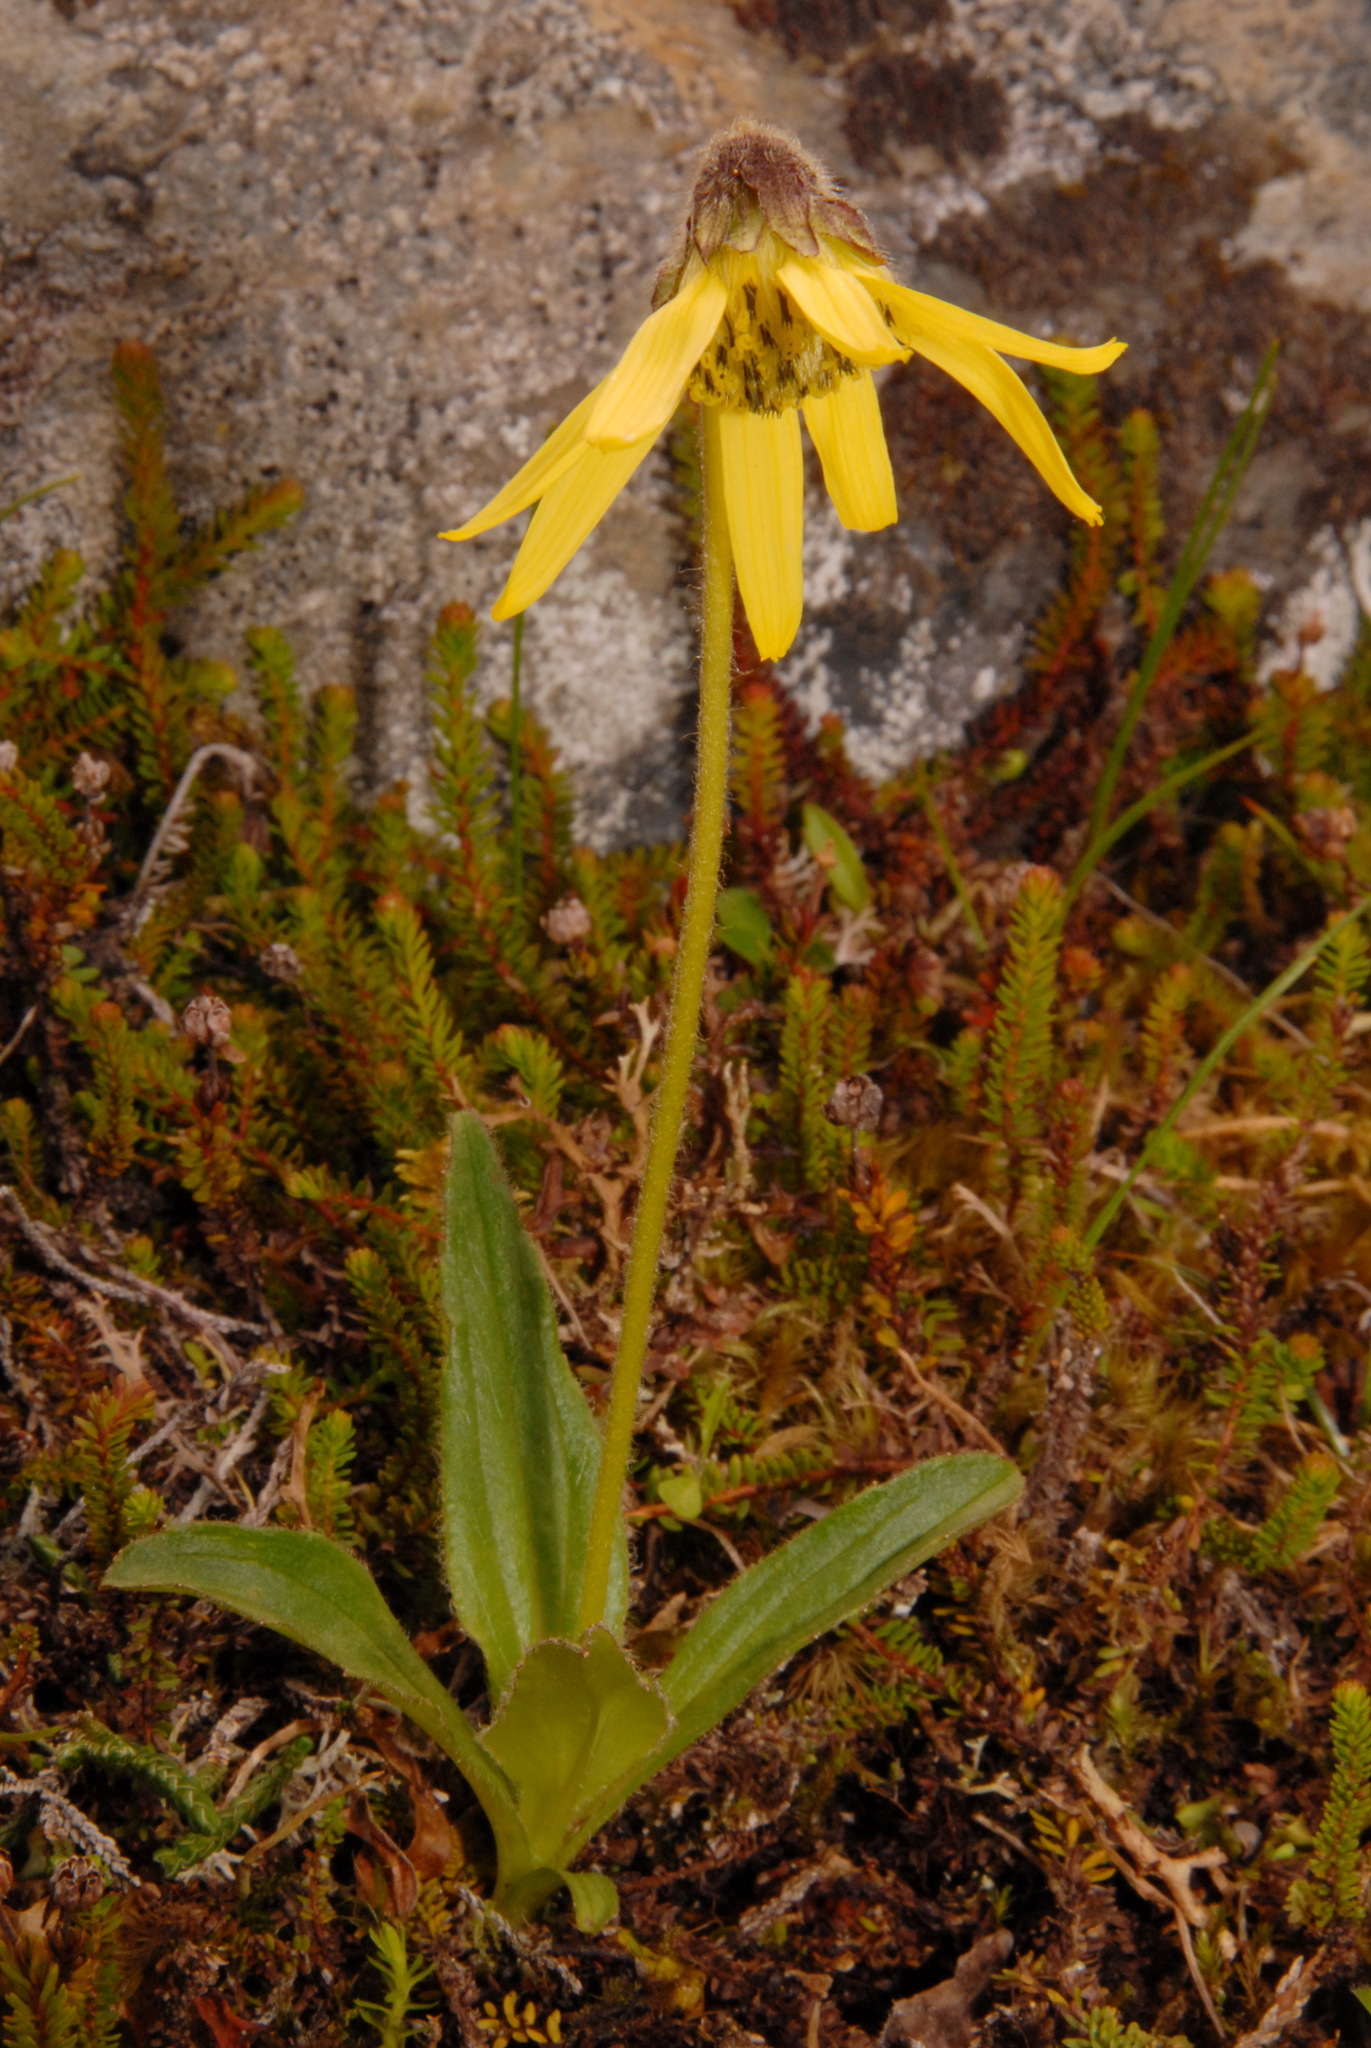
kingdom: Plantae
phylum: Tracheophyta
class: Magnoliopsida
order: Asterales
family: Asteraceae
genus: Arnica
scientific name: Arnica lessingii
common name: Nodding arnica
